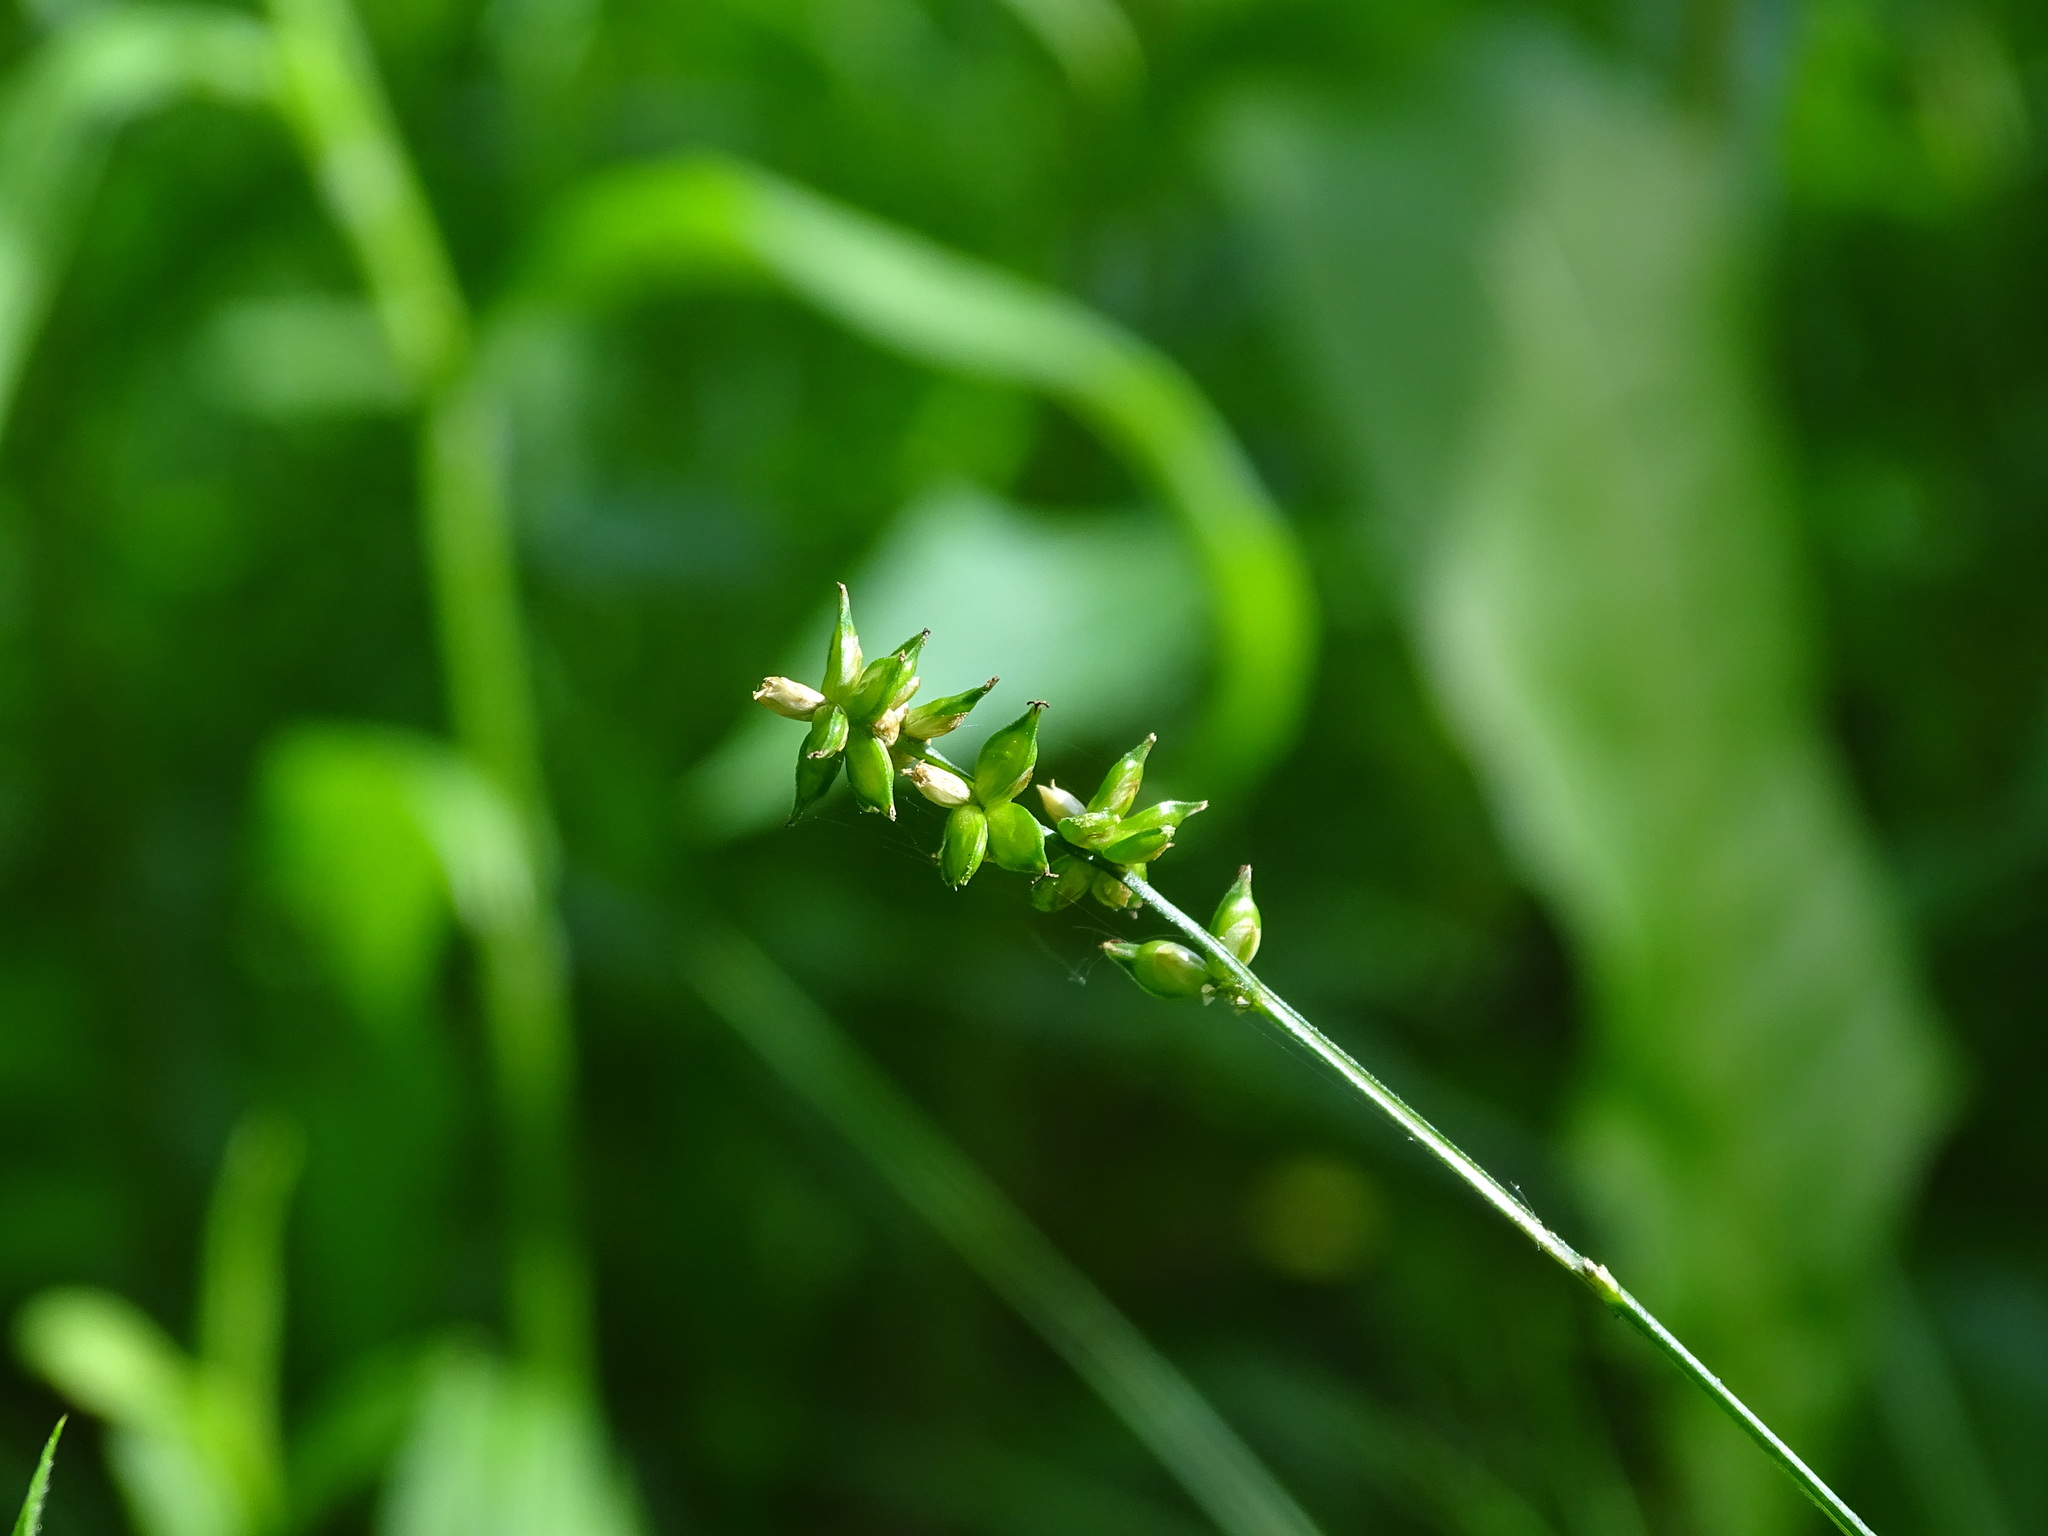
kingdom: Plantae
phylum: Tracheophyta
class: Liliopsida
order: Poales
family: Cyperaceae
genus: Carex
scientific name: Carex rosea
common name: Curly-styled wood sedge
